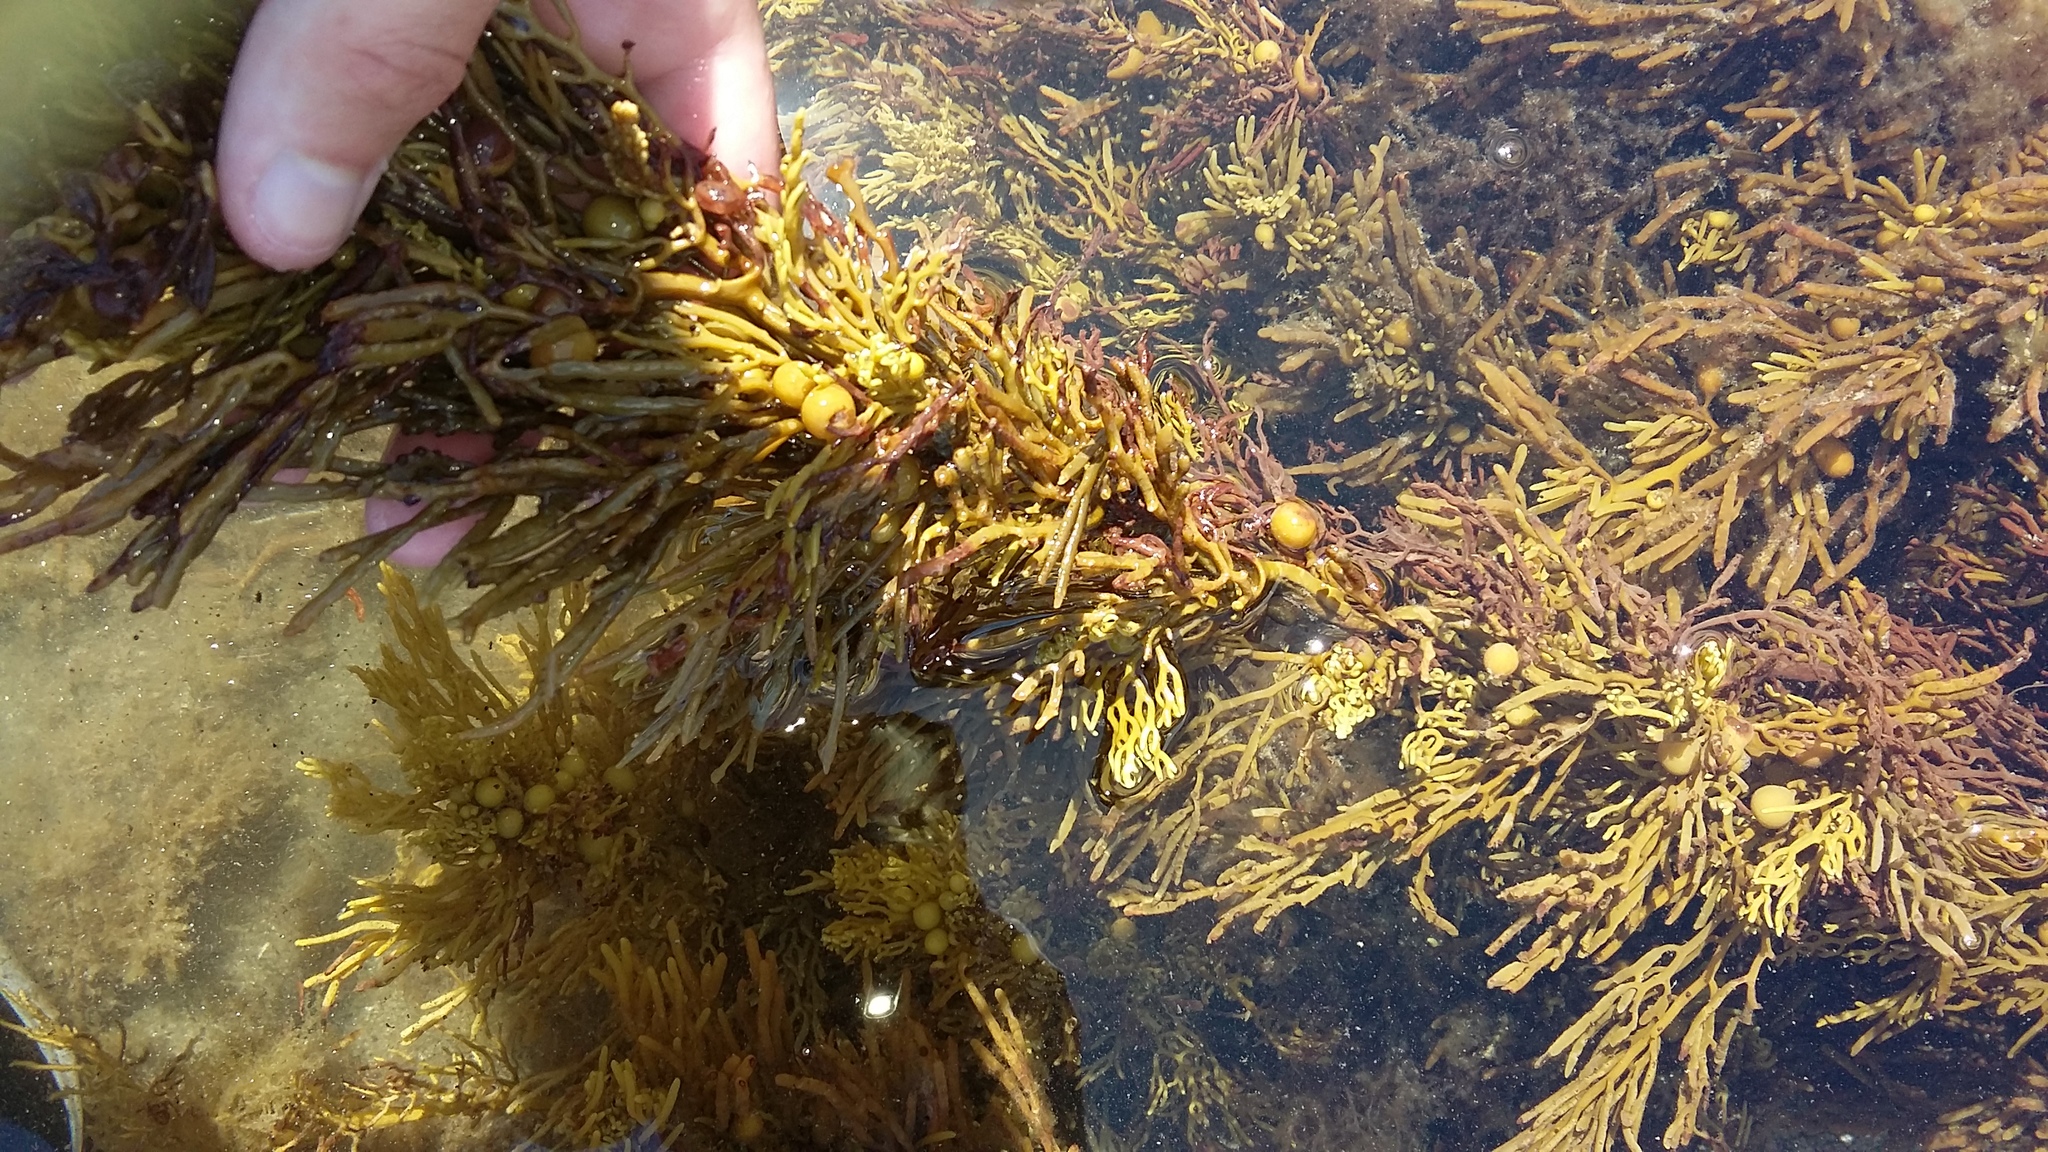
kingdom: Chromista
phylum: Ochrophyta
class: Phaeophyceae
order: Fucales
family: Sargassaceae
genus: Cystophora
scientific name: Cystophora scalaris
